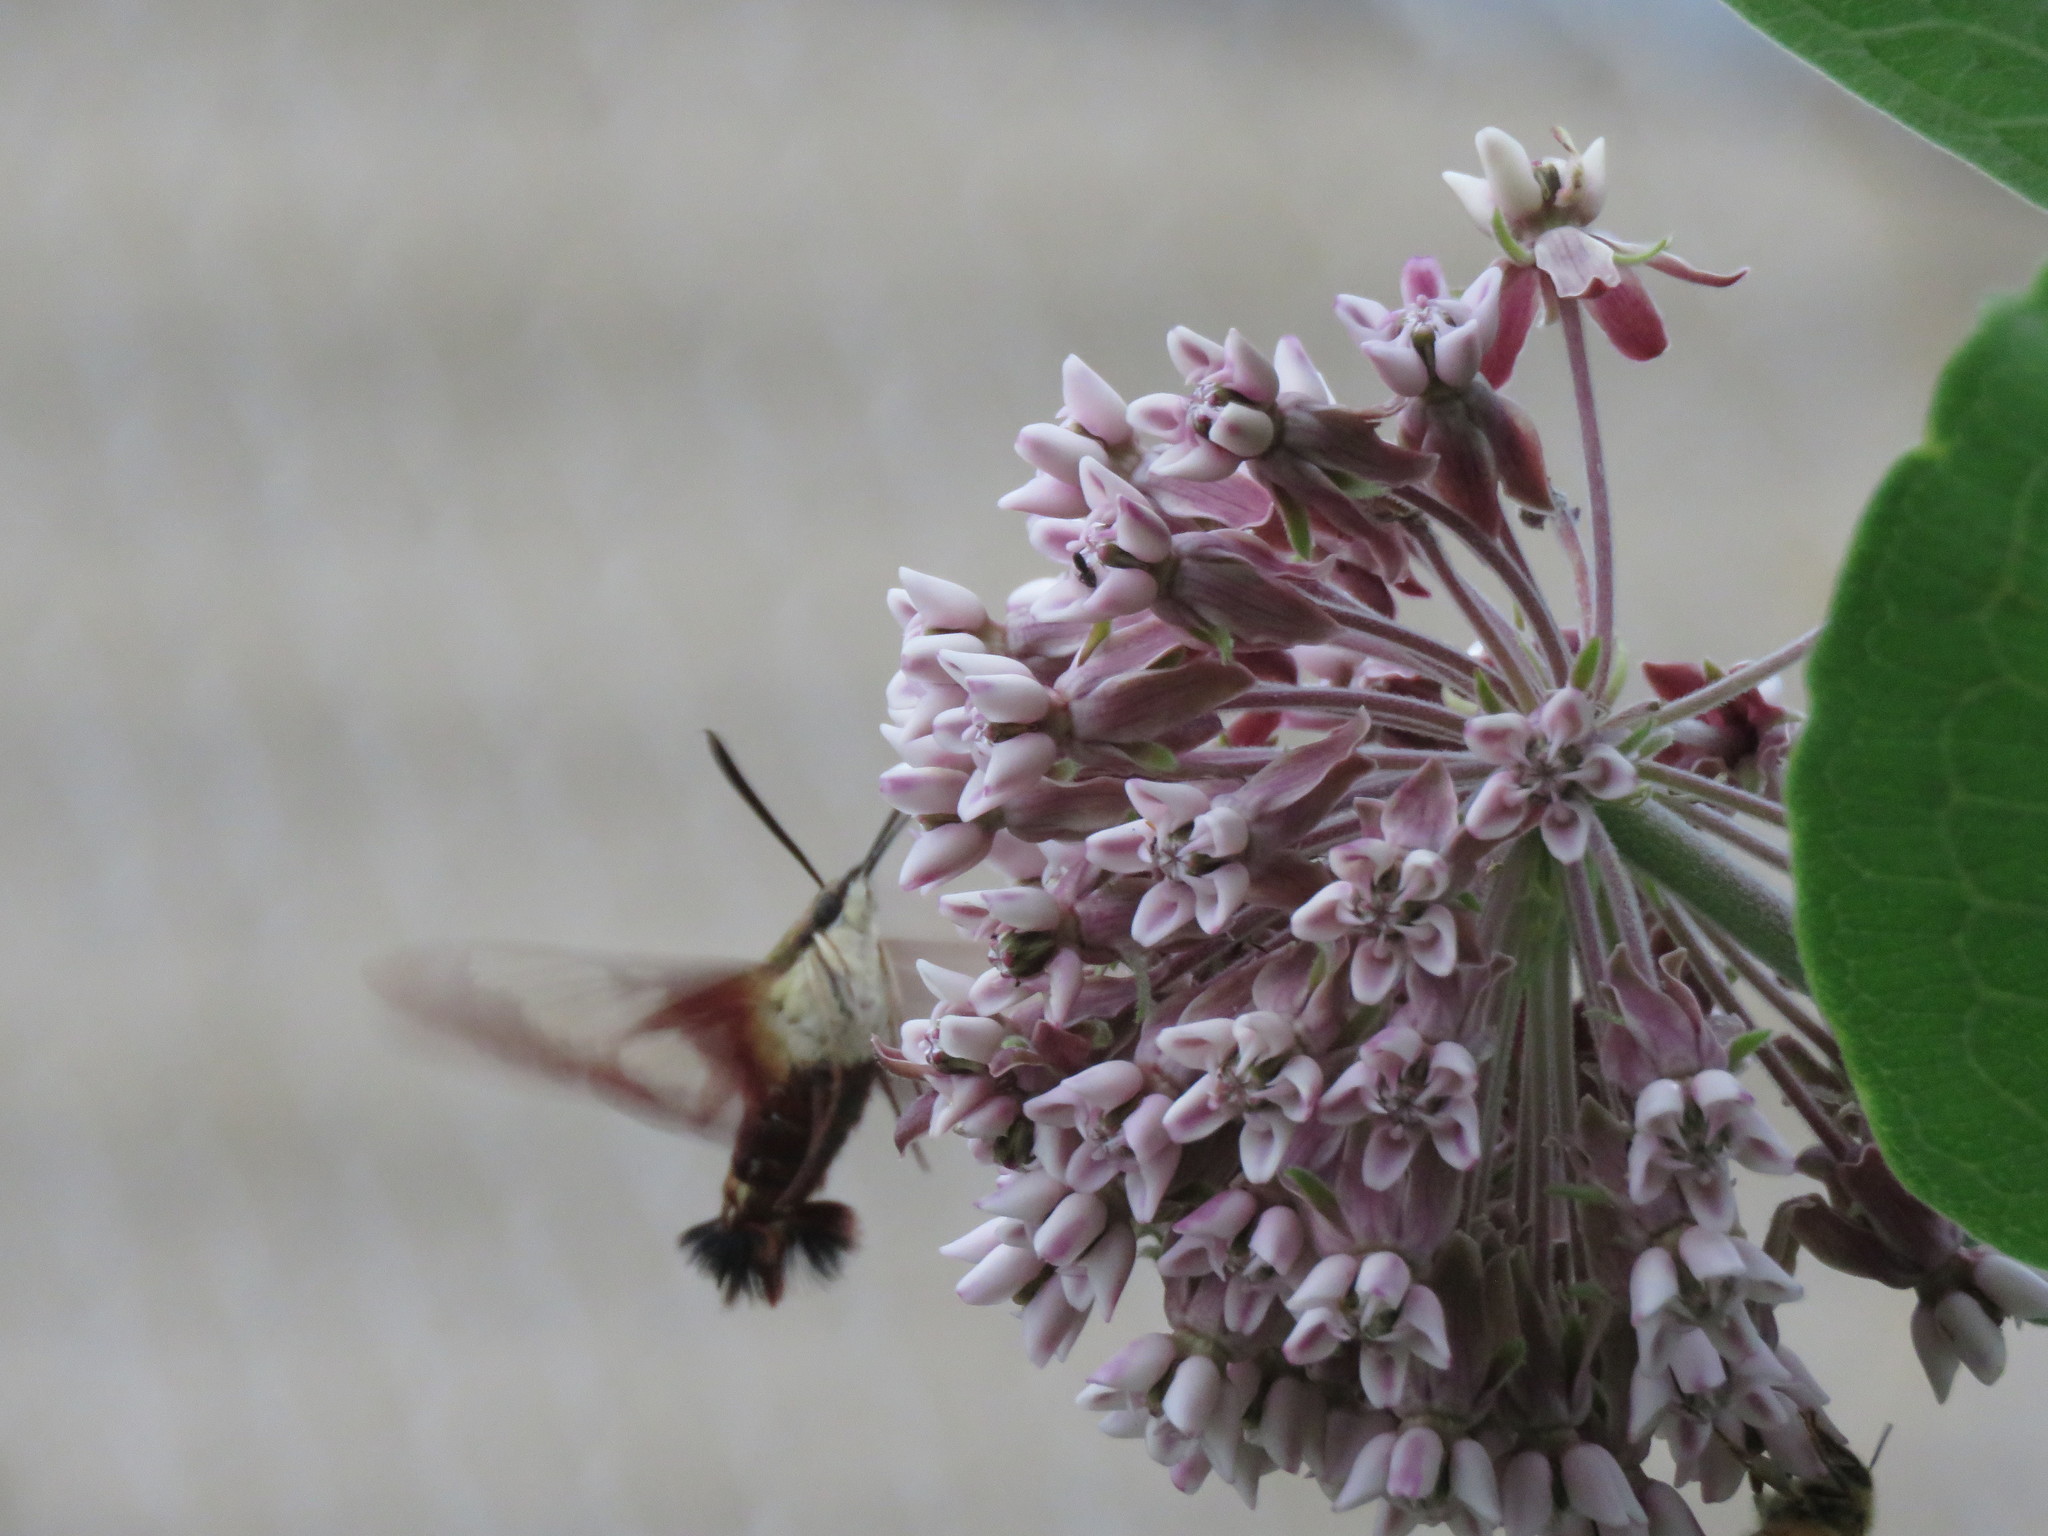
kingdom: Animalia
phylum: Arthropoda
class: Insecta
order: Lepidoptera
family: Sphingidae
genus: Hemaris
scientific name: Hemaris thysbe
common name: Common clear-wing
